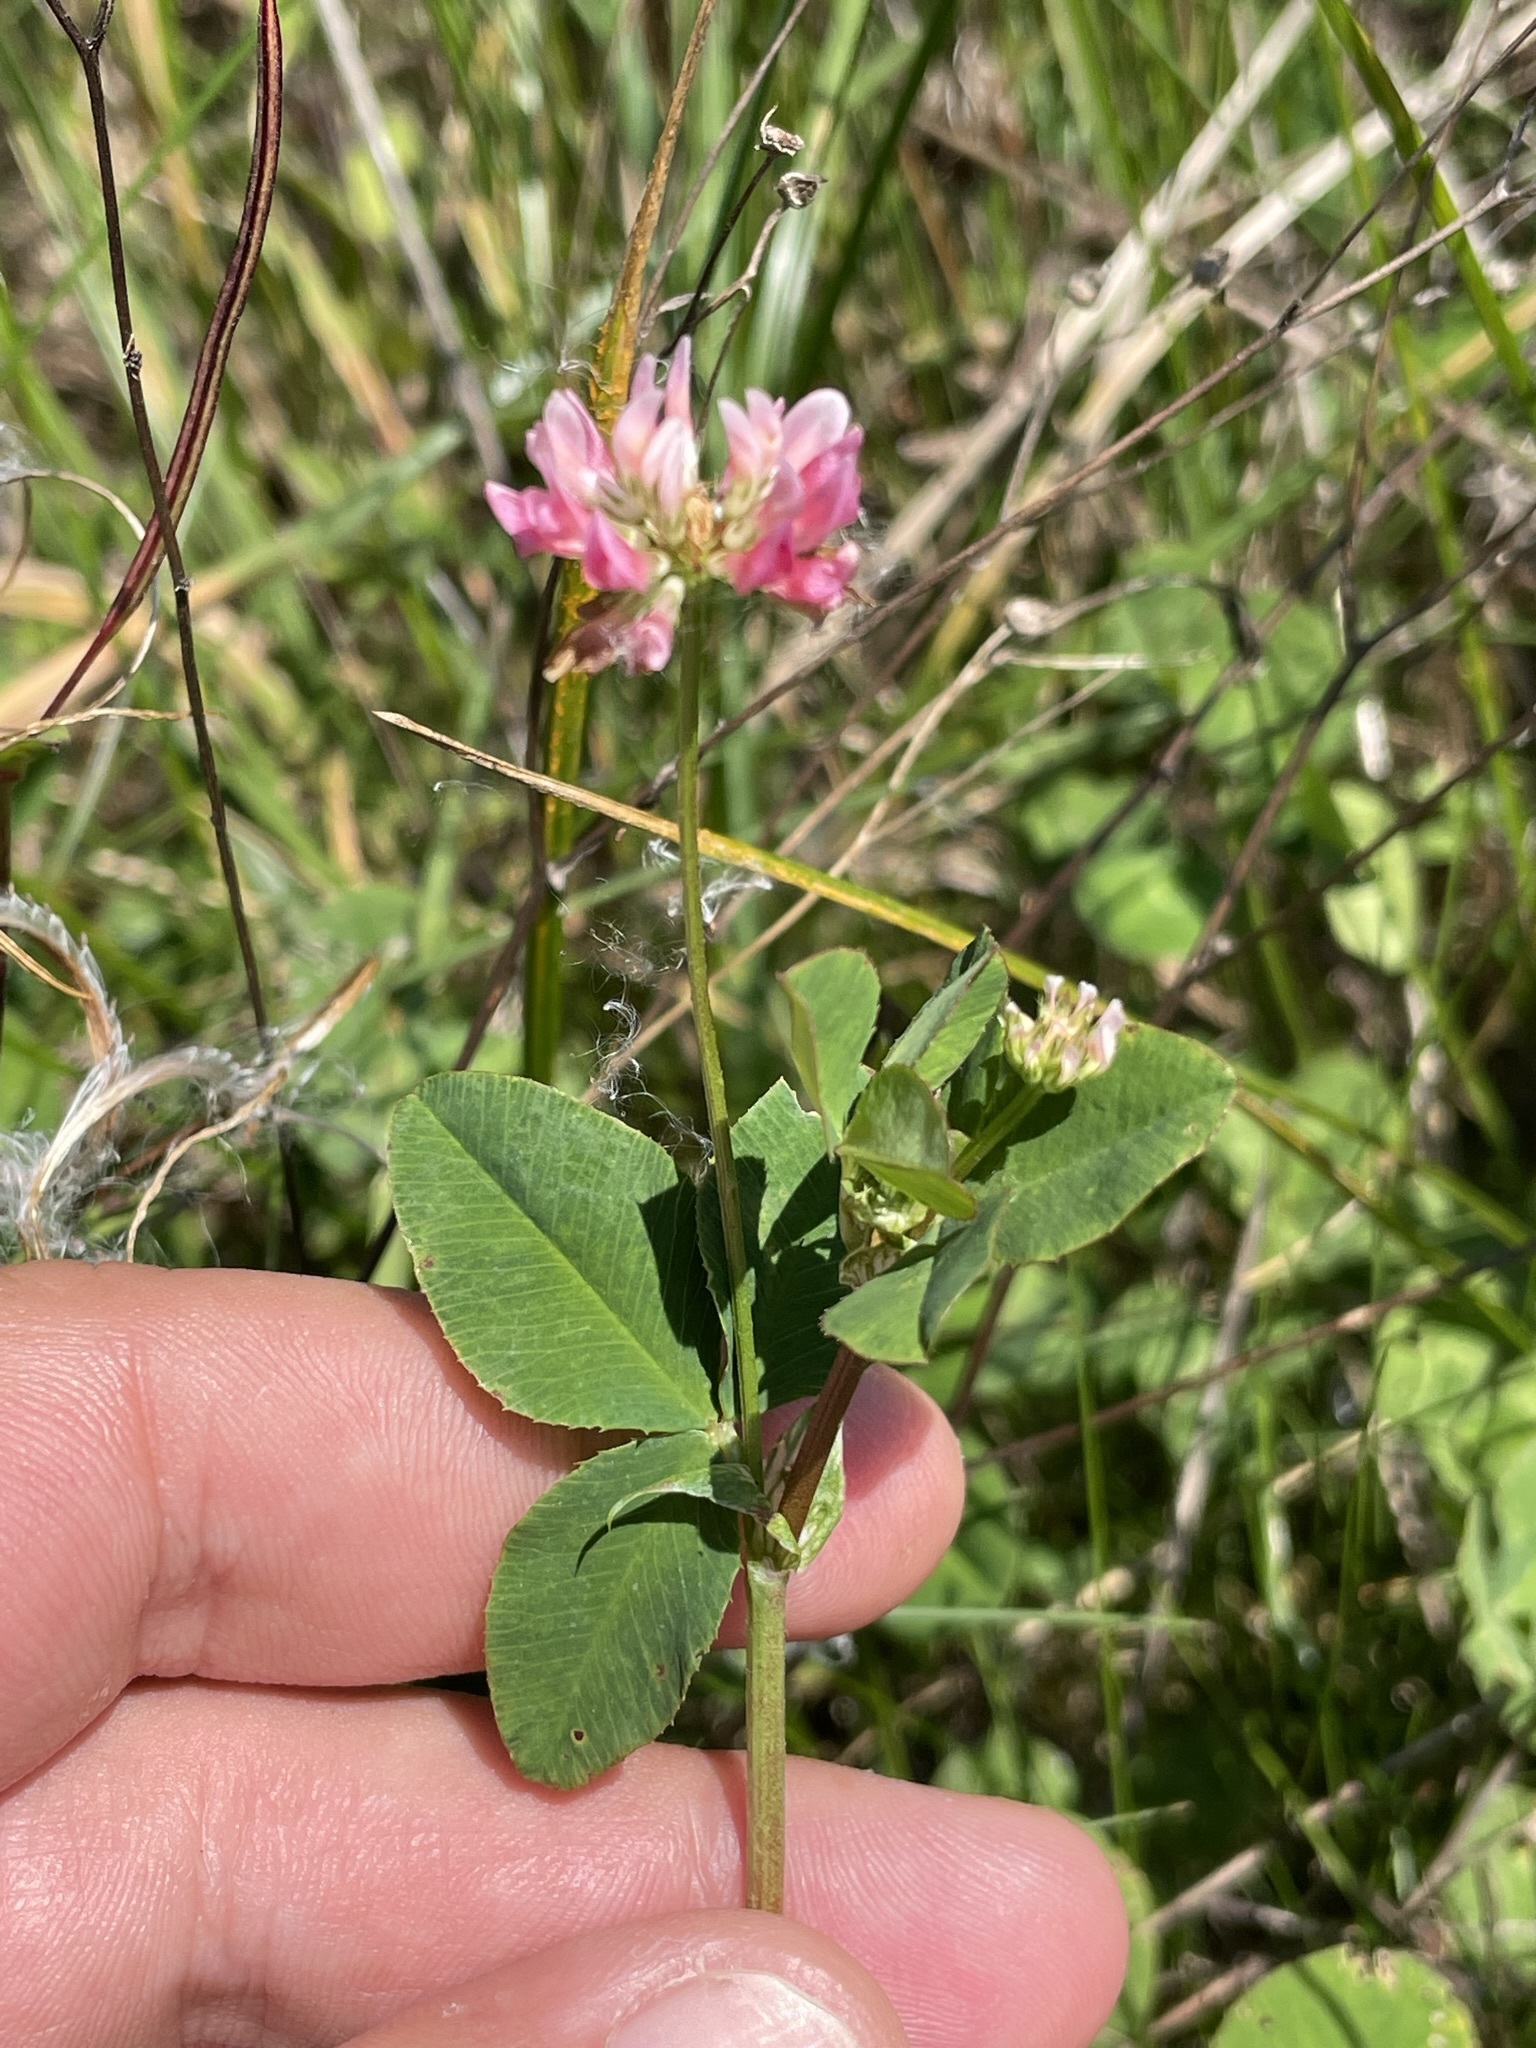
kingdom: Plantae
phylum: Tracheophyta
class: Magnoliopsida
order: Fabales
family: Fabaceae
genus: Trifolium
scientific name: Trifolium hybridum
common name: Alsike clover
